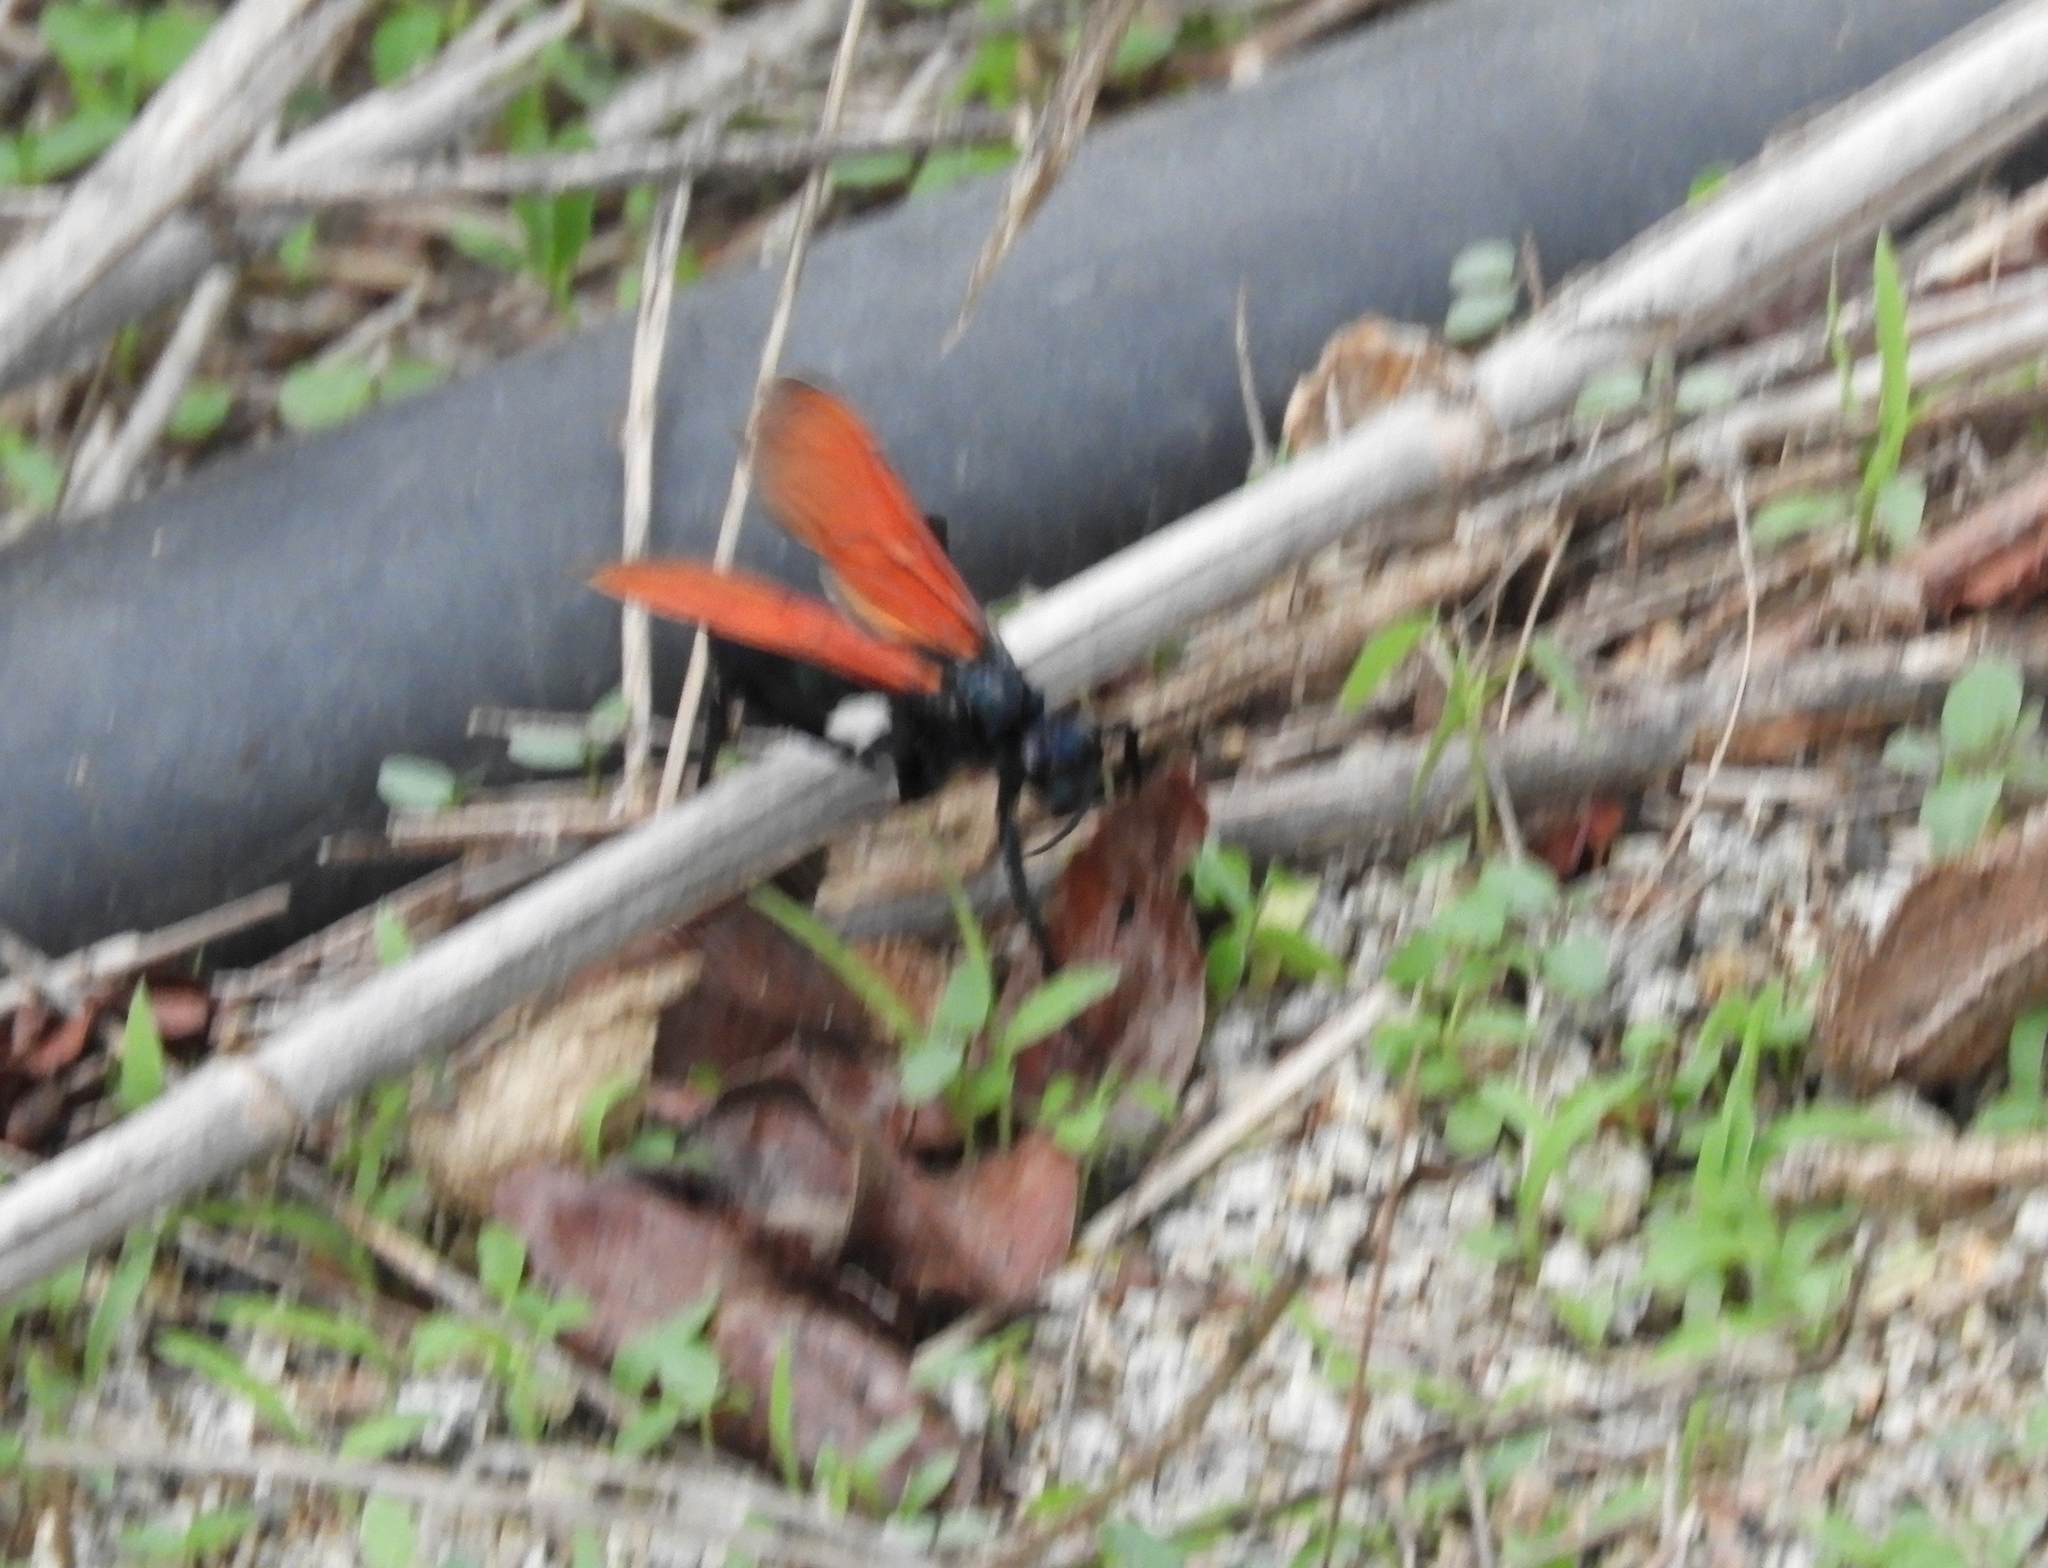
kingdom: Animalia
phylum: Arthropoda
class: Insecta
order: Hymenoptera
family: Pompilidae
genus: Pepsis
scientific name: Pepsis
